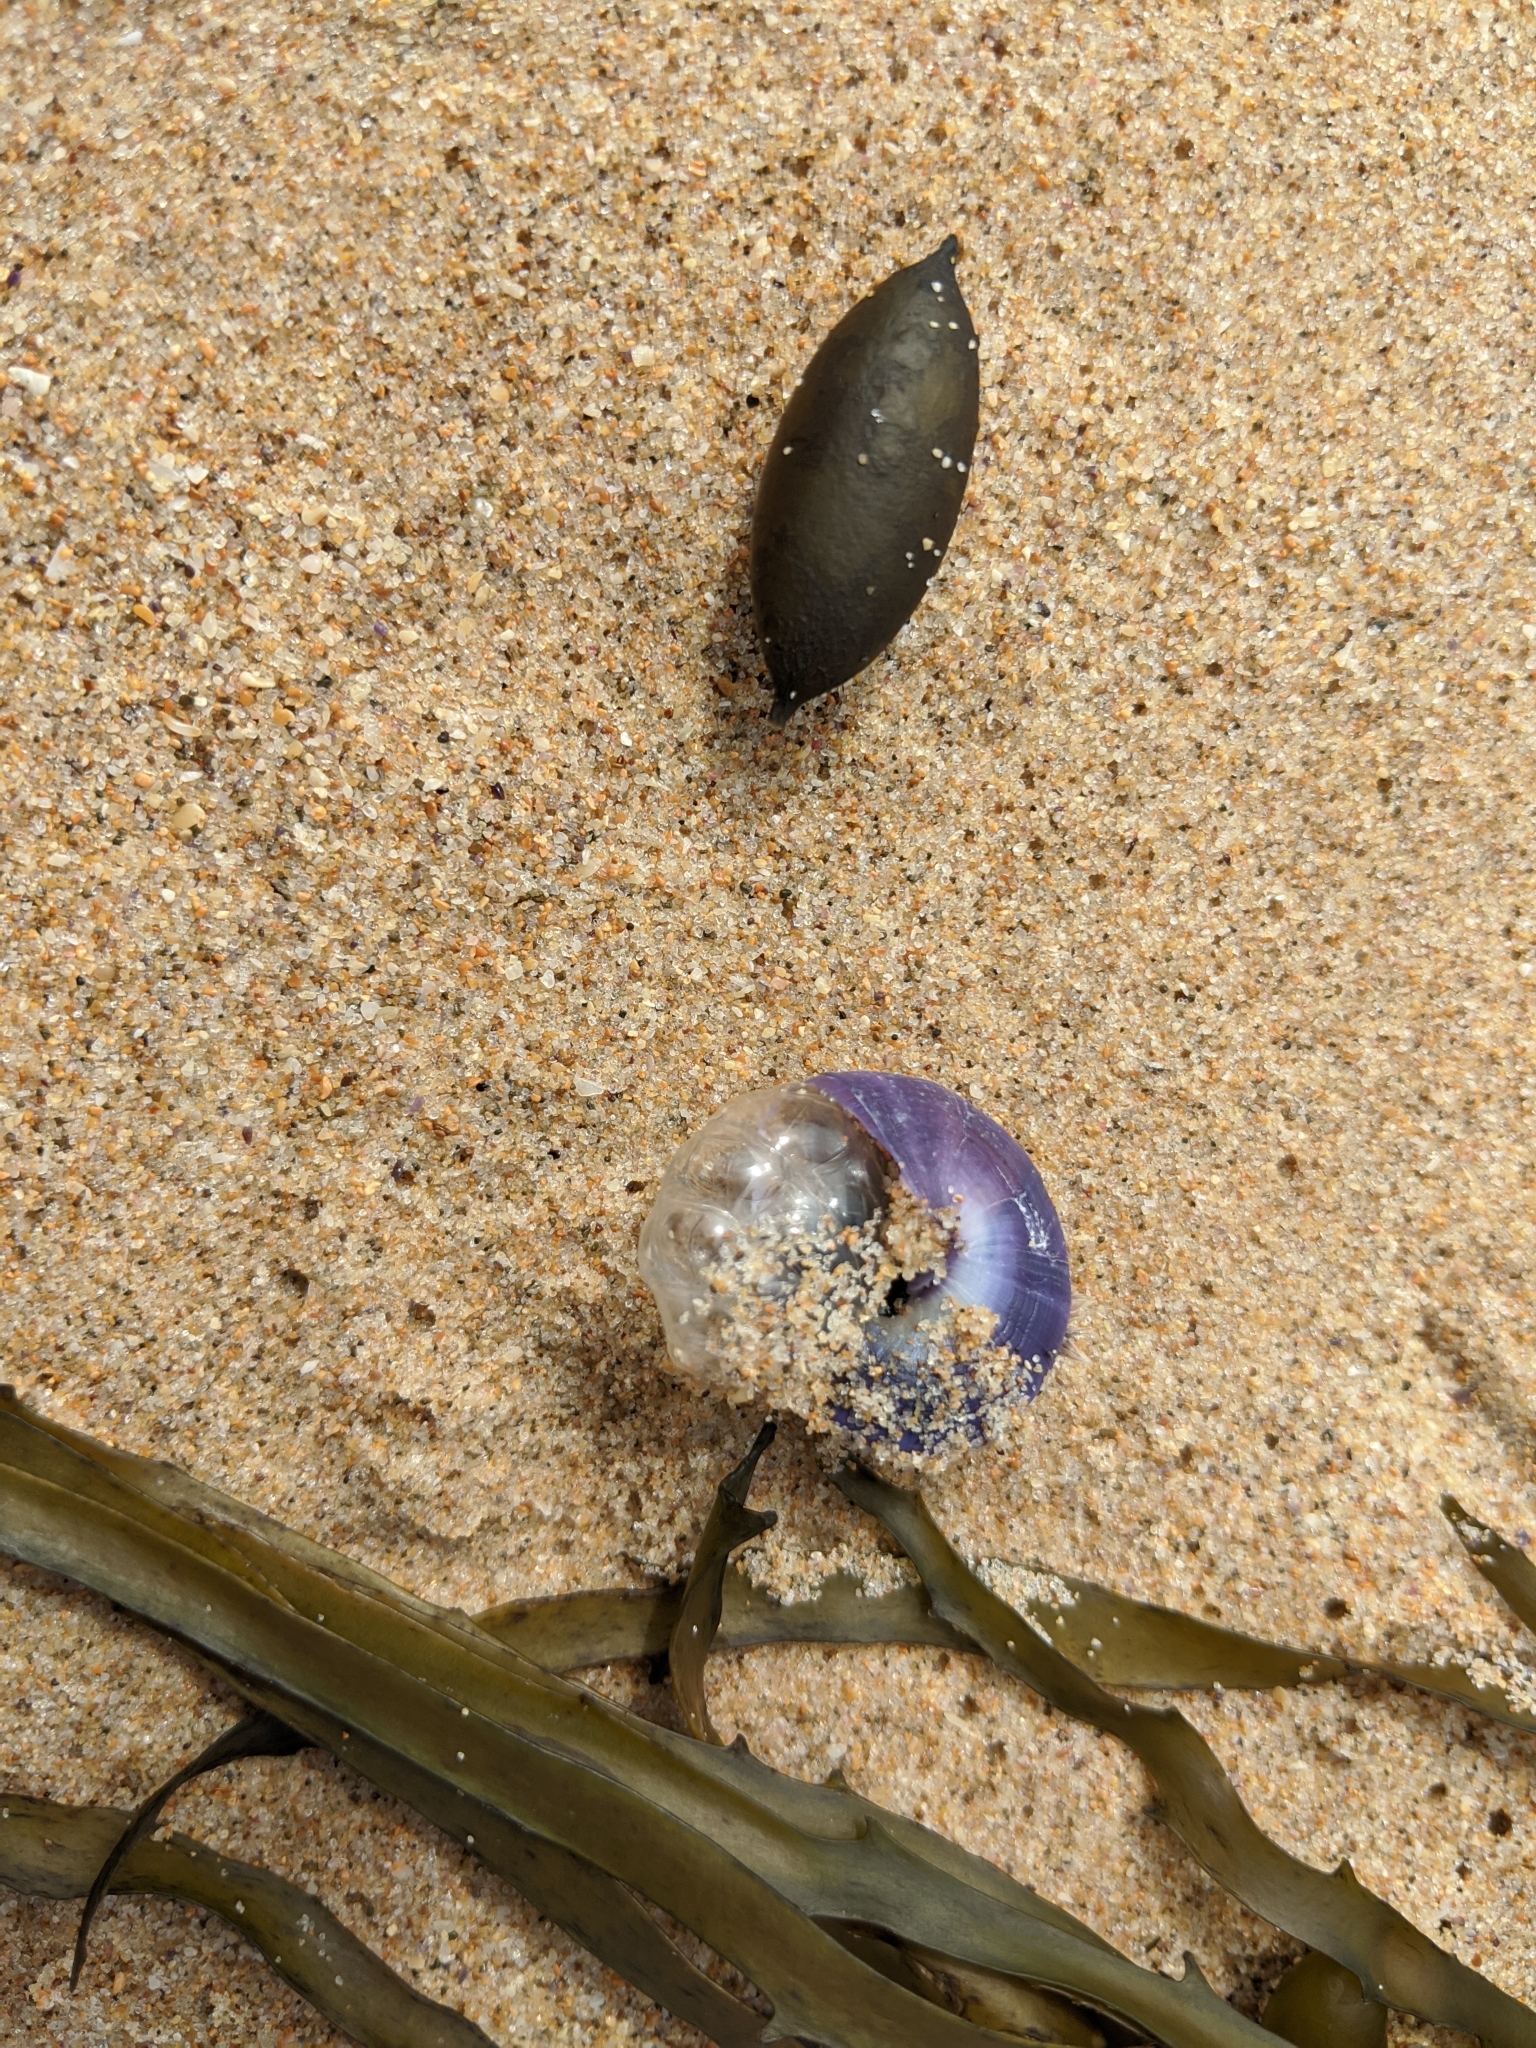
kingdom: Animalia
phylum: Mollusca
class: Gastropoda
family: Epitoniidae
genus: Janthina
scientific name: Janthina janthina
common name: Common janthina
